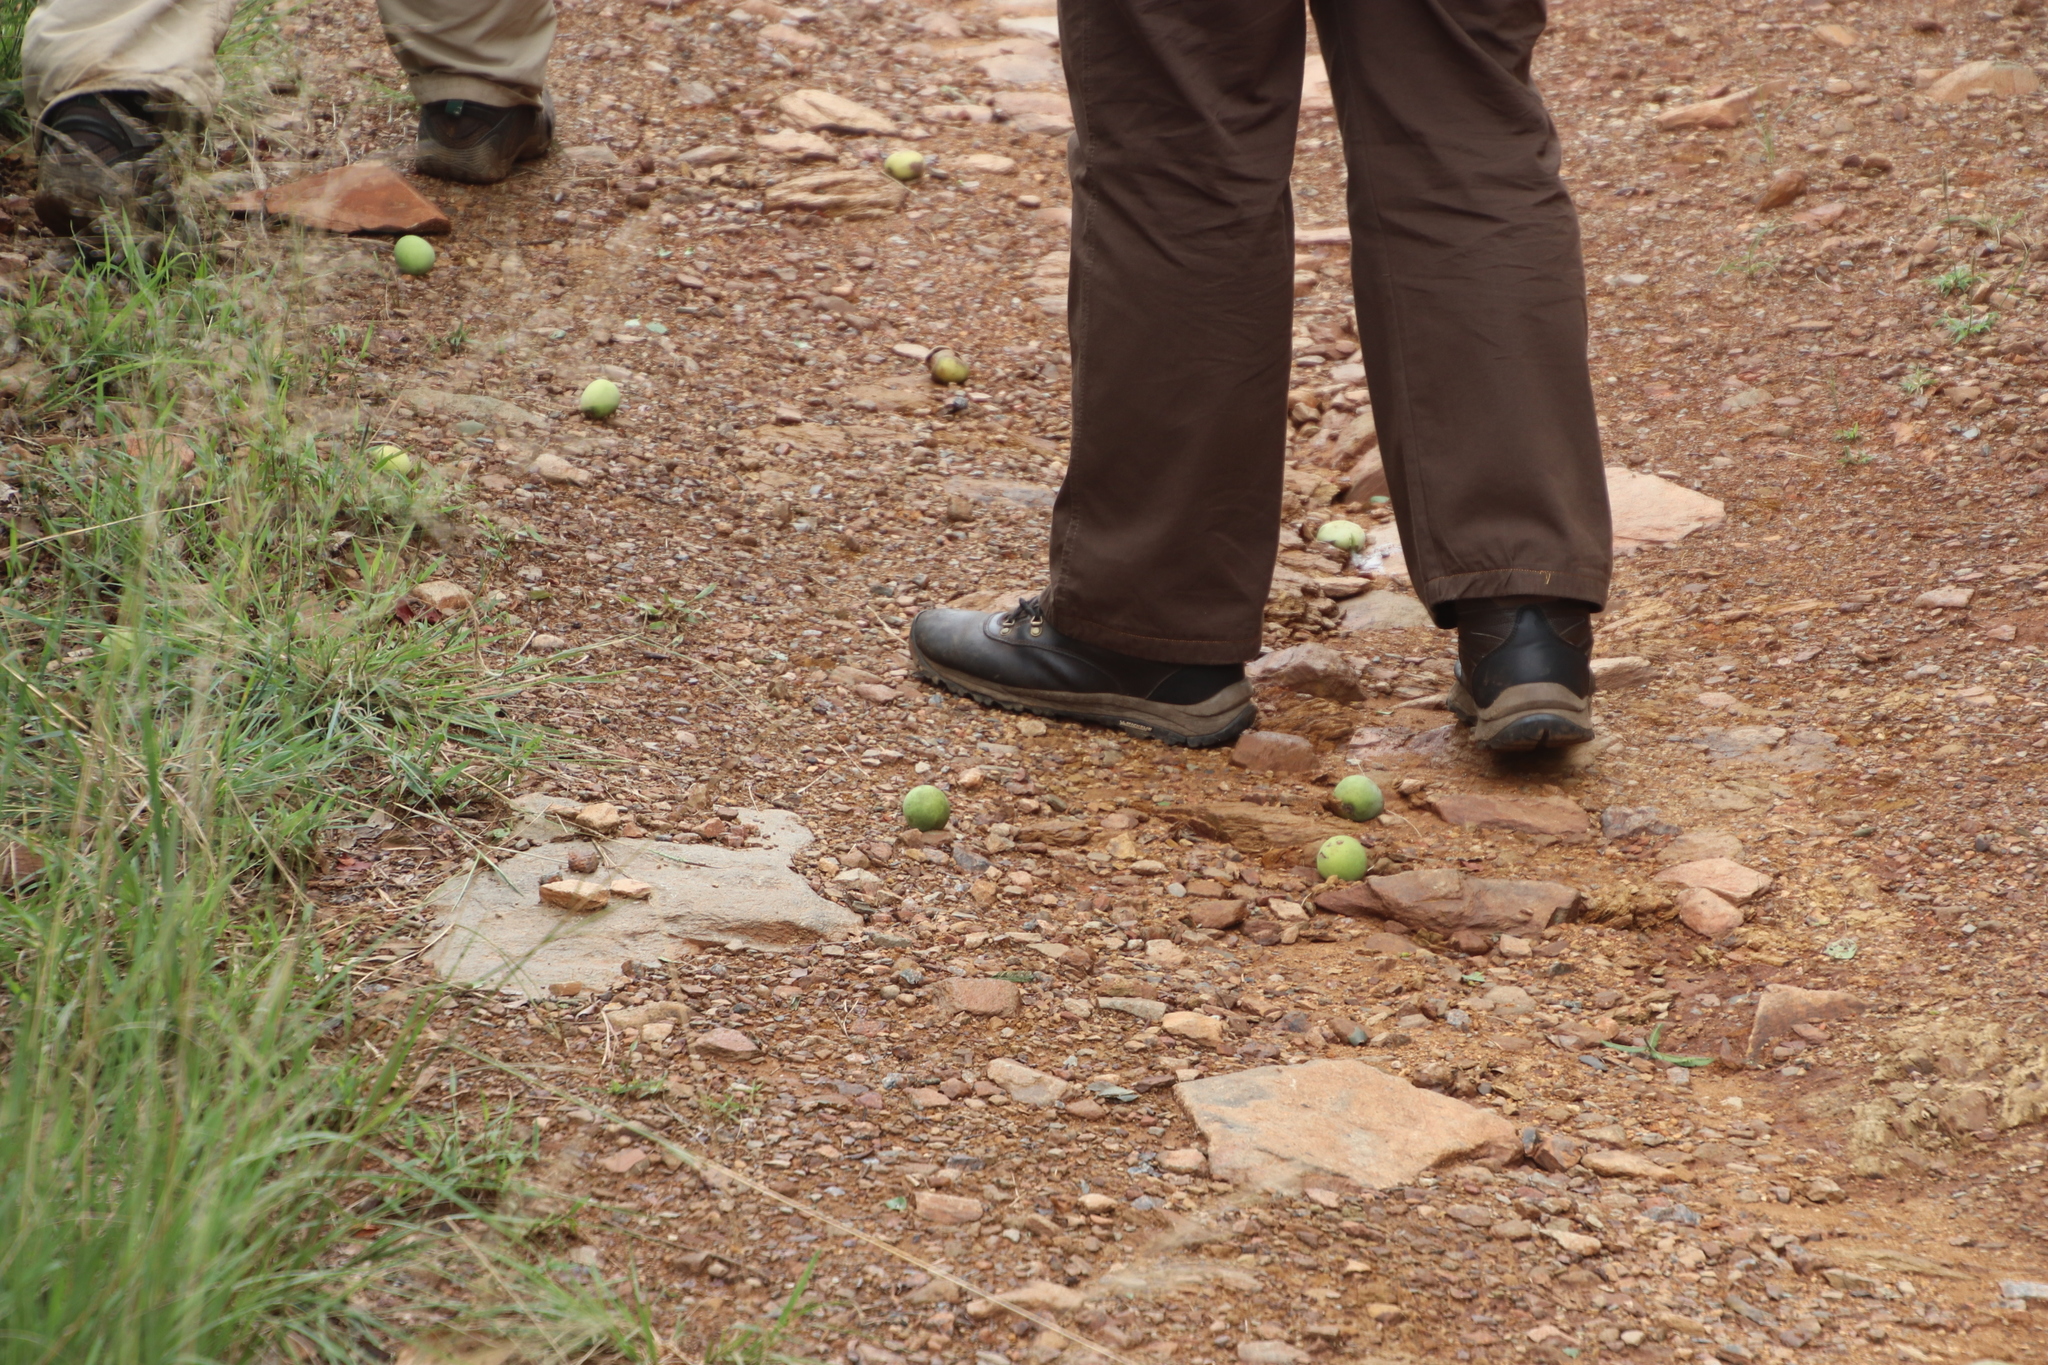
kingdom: Plantae
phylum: Tracheophyta
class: Magnoliopsida
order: Sapindales
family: Anacardiaceae
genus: Sclerocarya
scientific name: Sclerocarya birrea
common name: Marula
